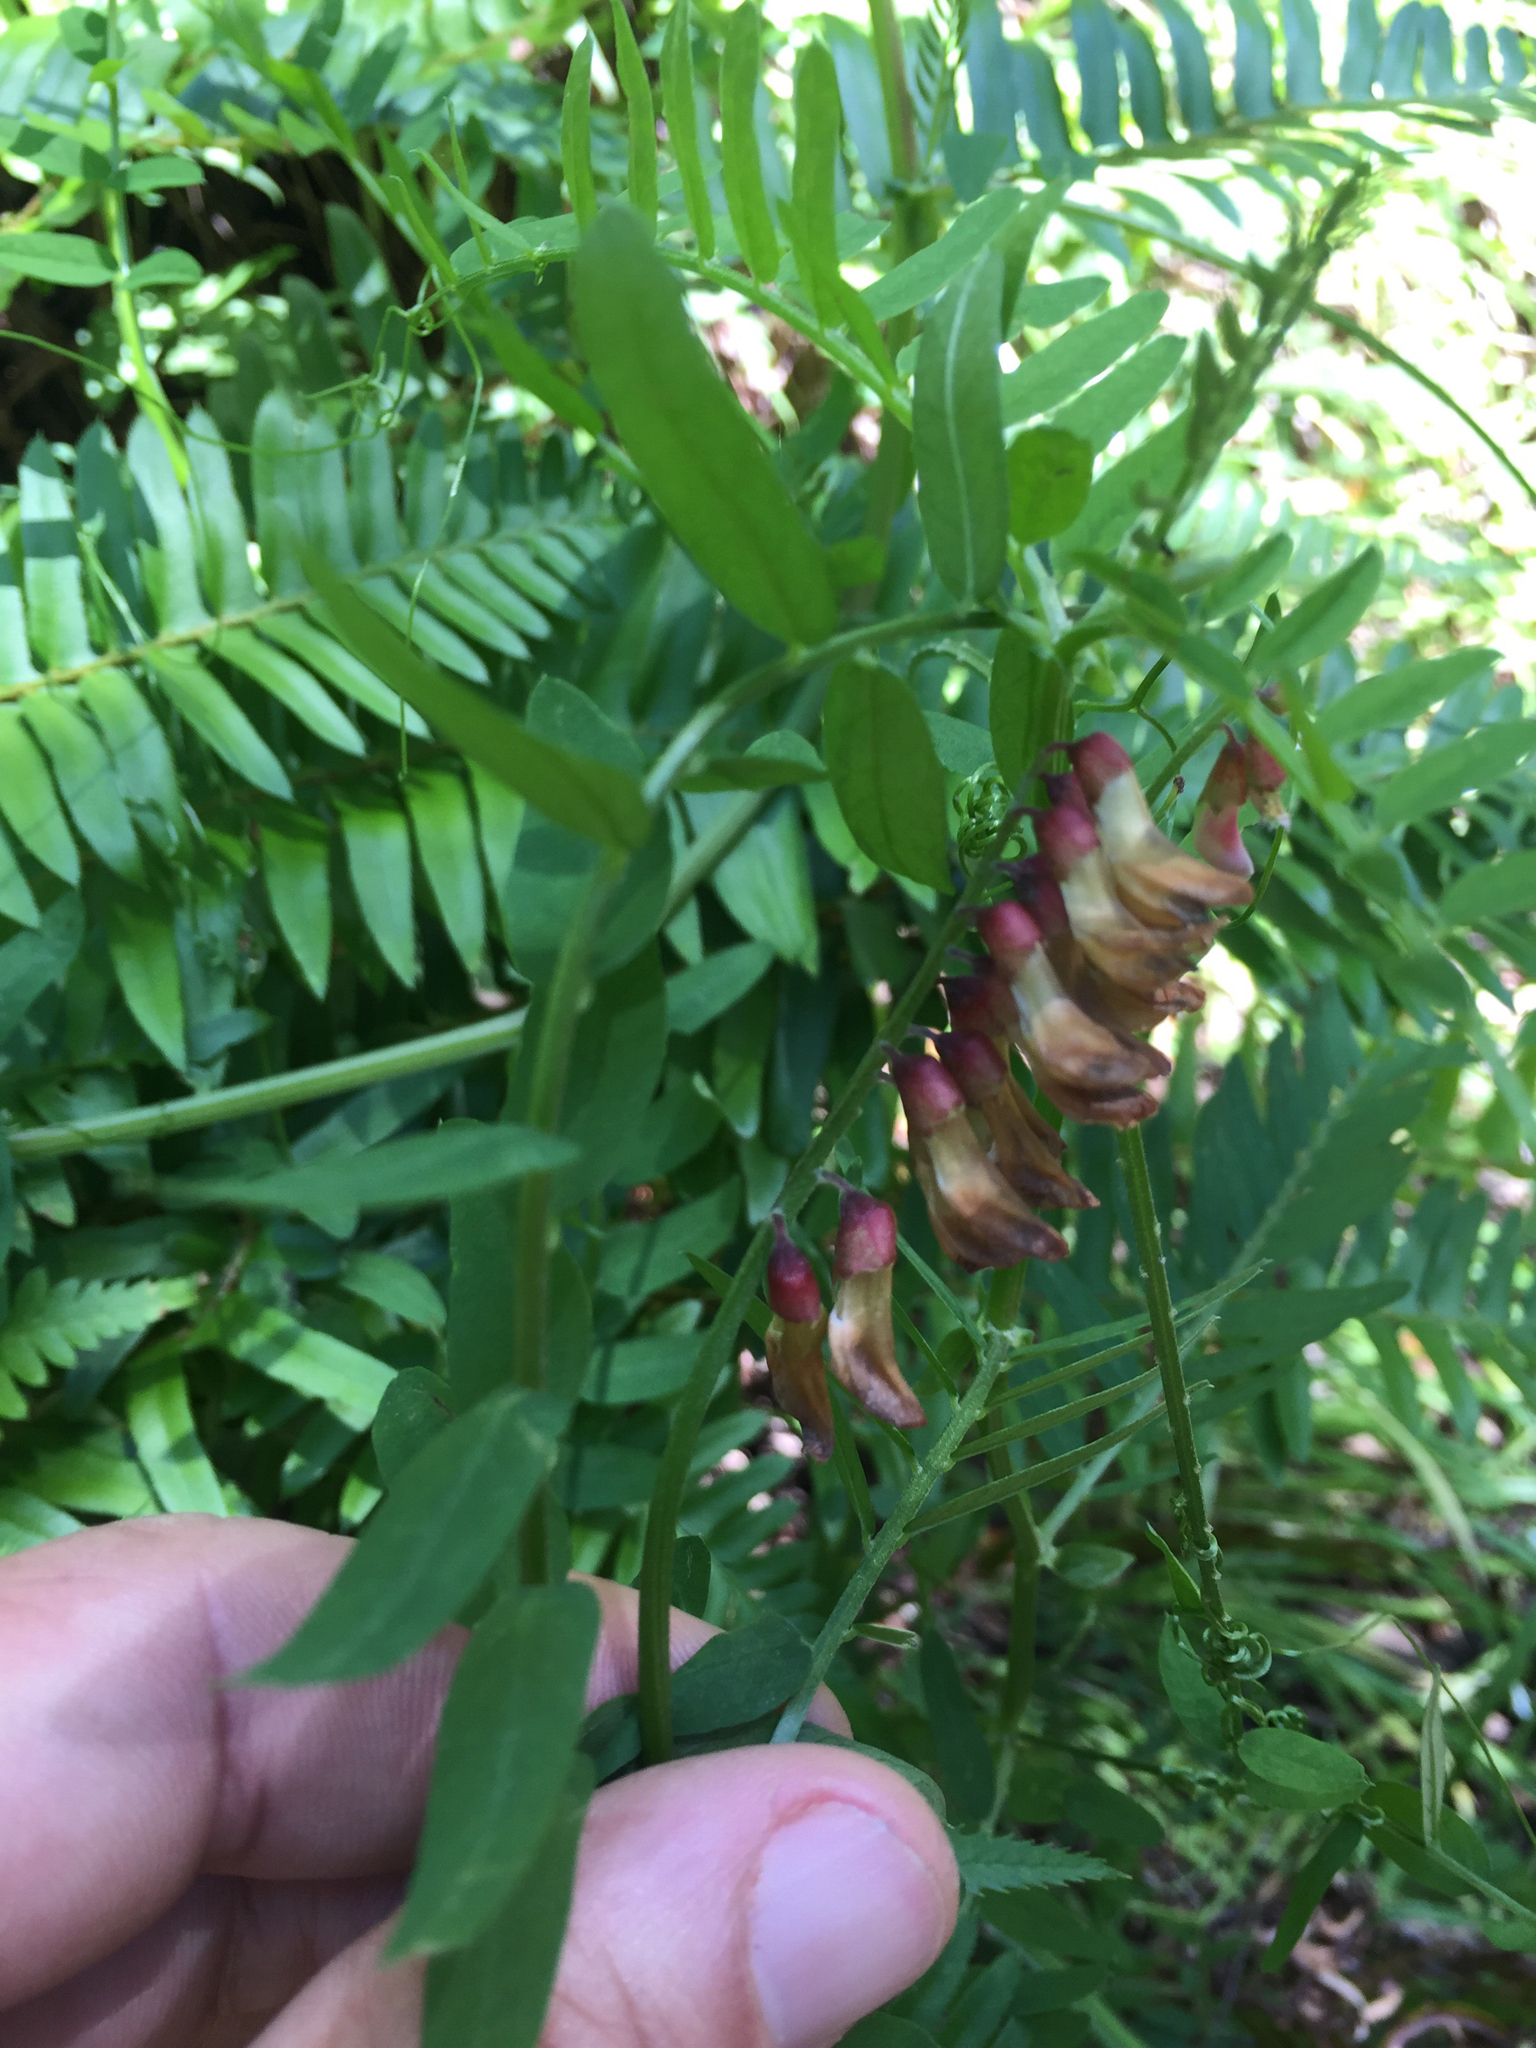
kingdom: Plantae
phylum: Tracheophyta
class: Magnoliopsida
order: Fabales
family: Fabaceae
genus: Vicia
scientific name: Vicia
